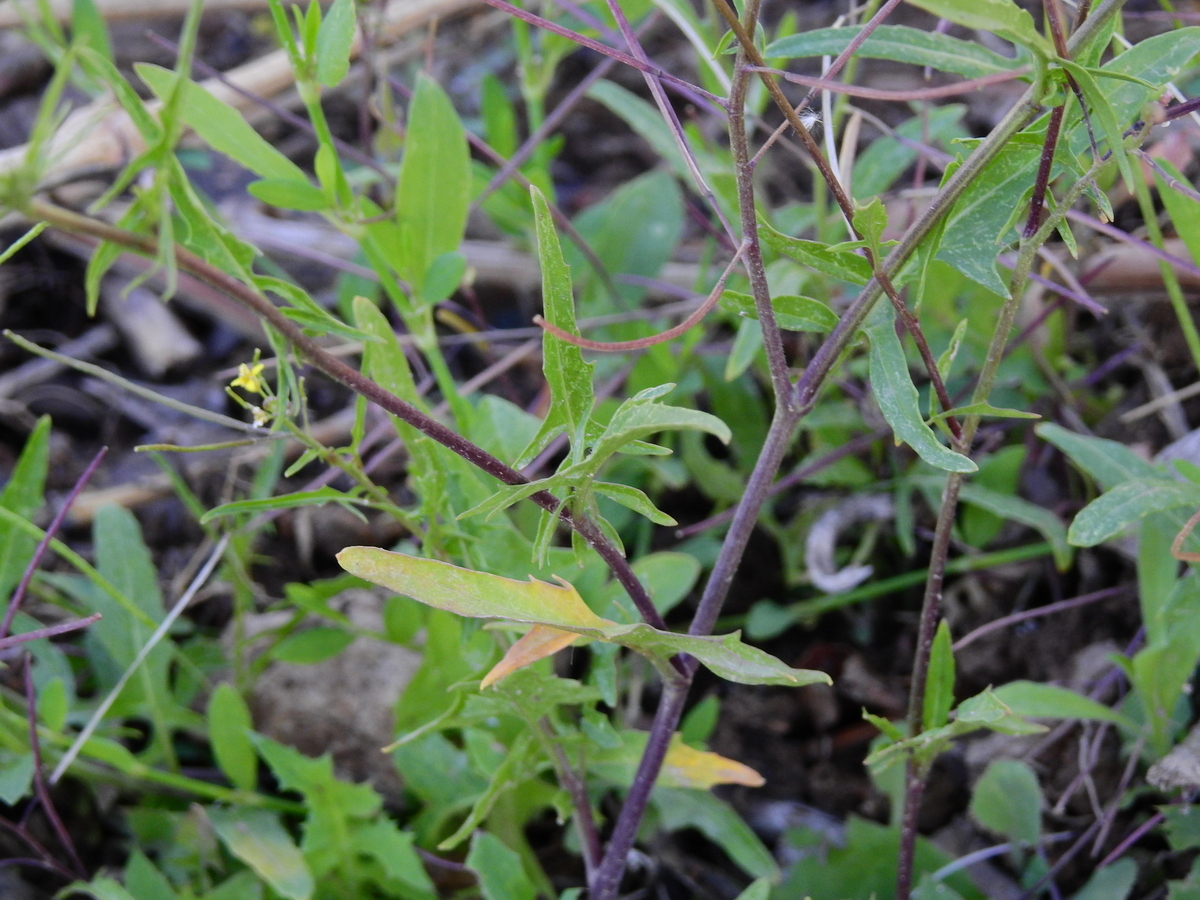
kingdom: Plantae
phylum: Tracheophyta
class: Magnoliopsida
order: Brassicales
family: Brassicaceae
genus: Sisymbrium
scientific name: Sisymbrium irio
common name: London rocket
